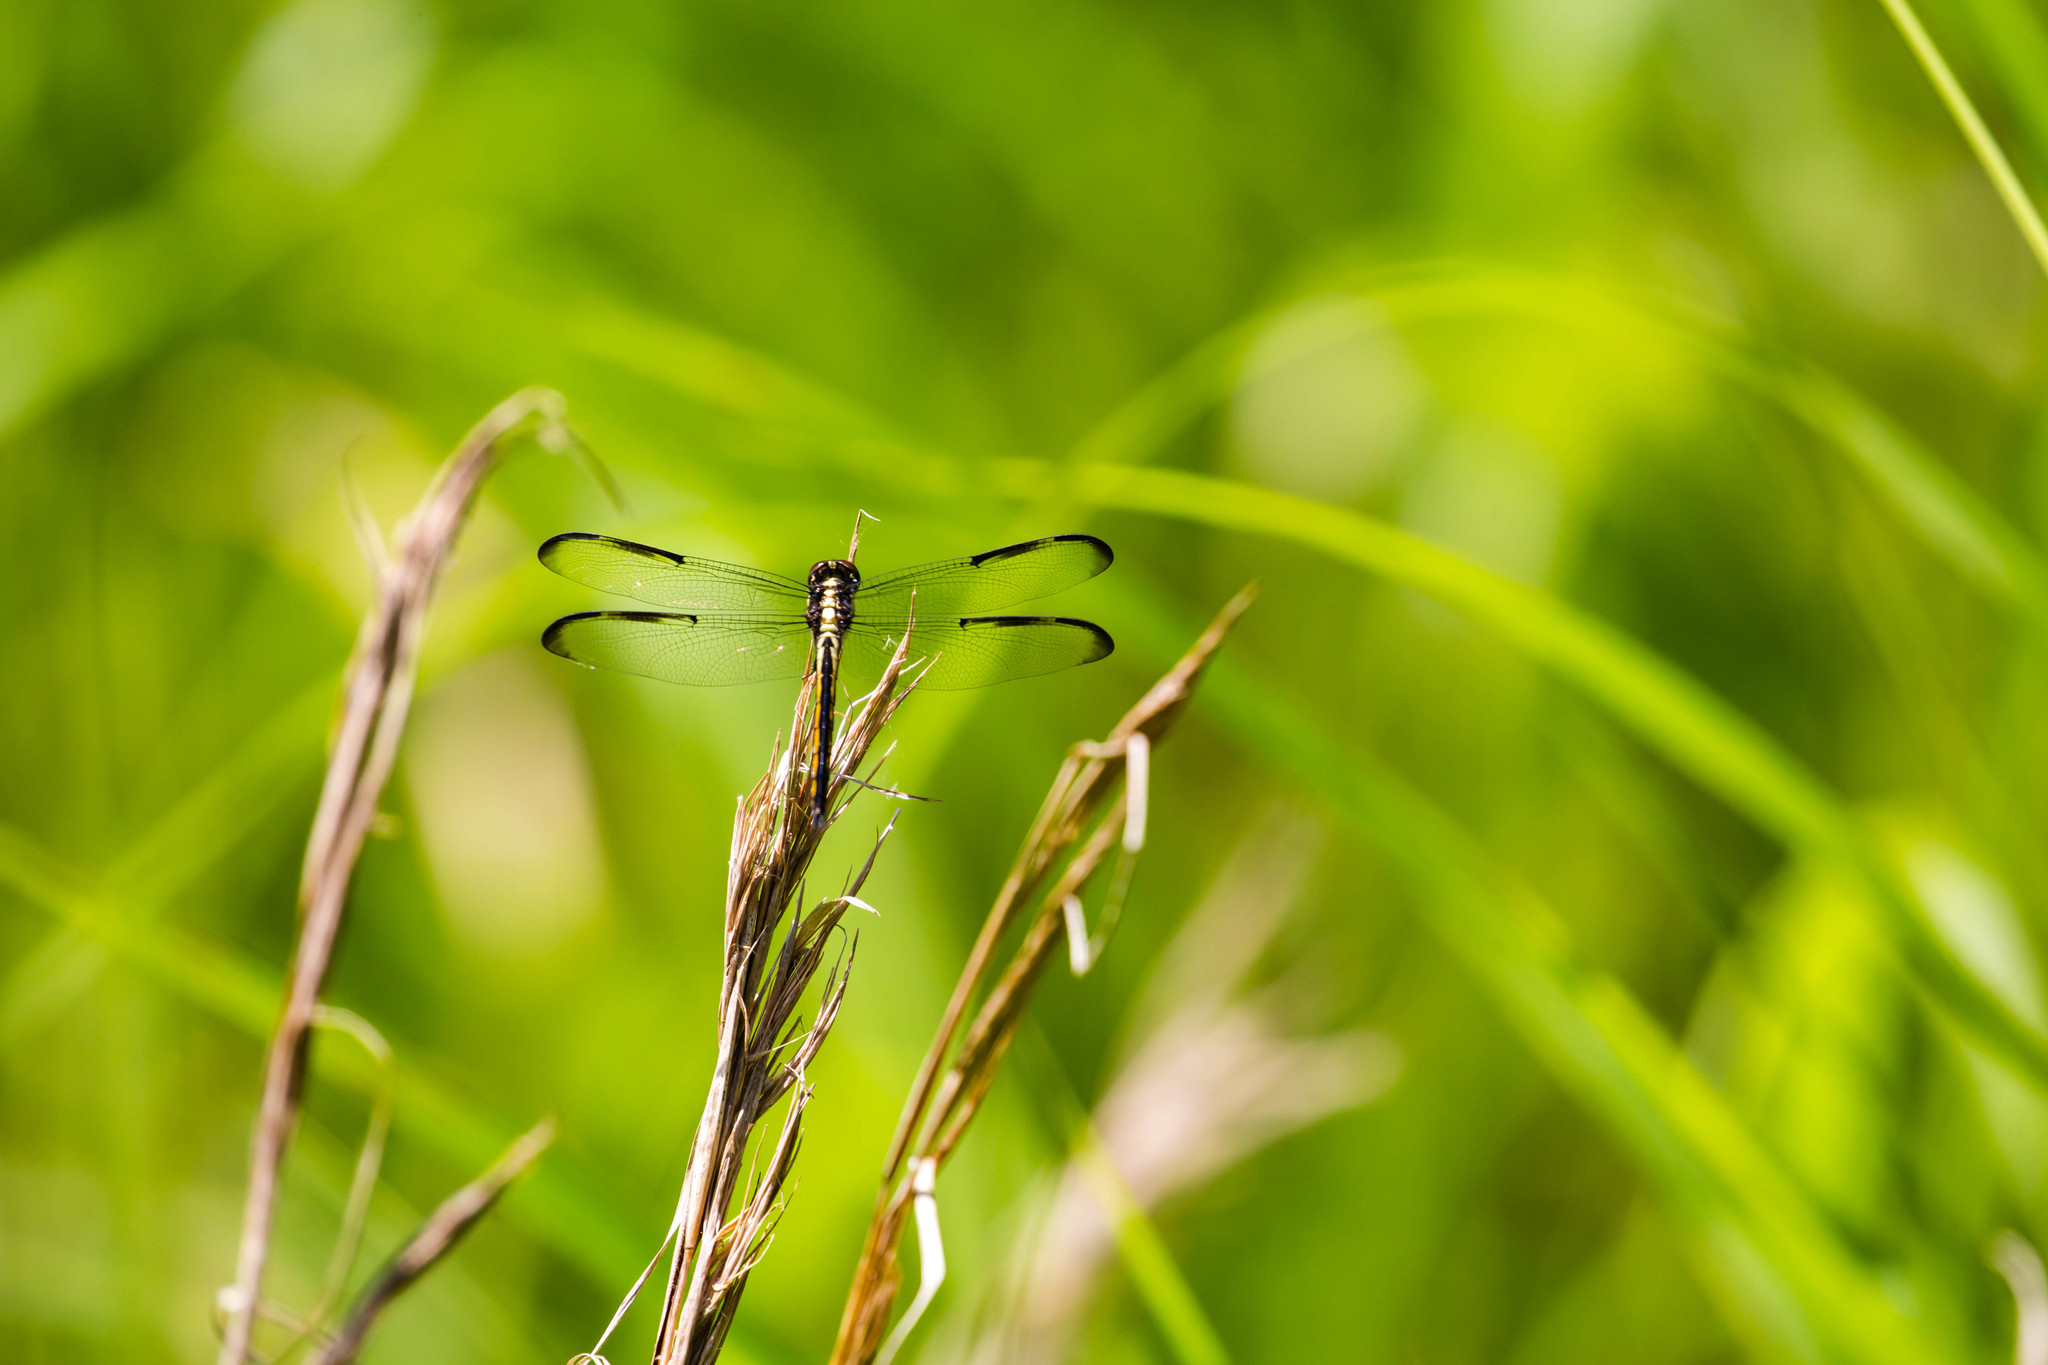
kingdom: Animalia
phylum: Arthropoda
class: Insecta
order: Odonata
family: Libellulidae
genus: Libellula
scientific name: Libellula incesta
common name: Slaty skimmer
